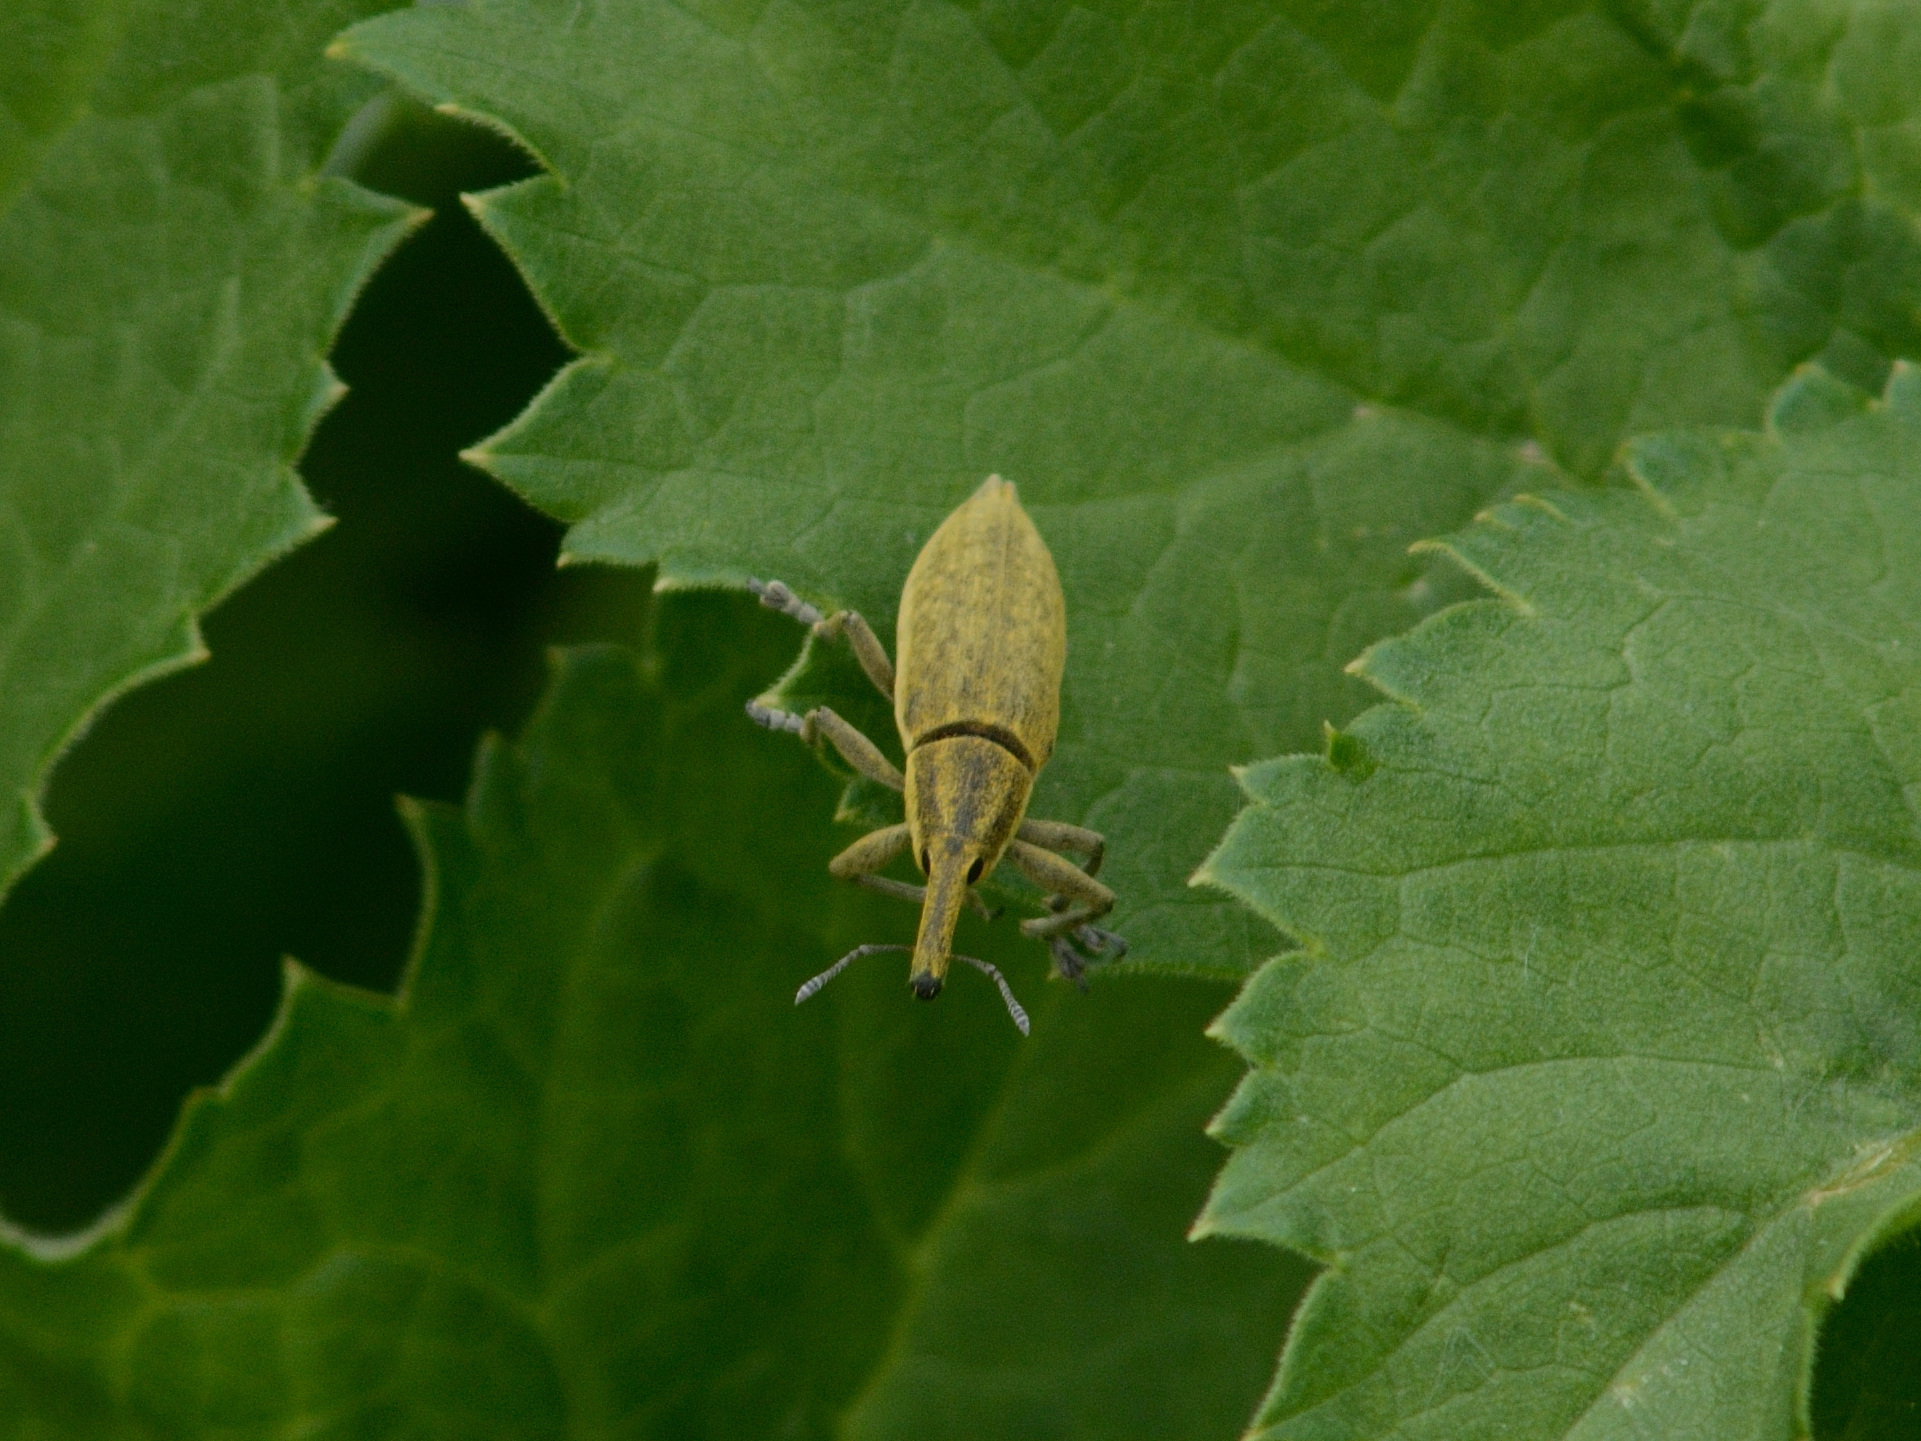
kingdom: Animalia
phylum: Arthropoda
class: Insecta
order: Coleoptera
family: Curculionidae
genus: Lixus
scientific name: Lixus iridis
